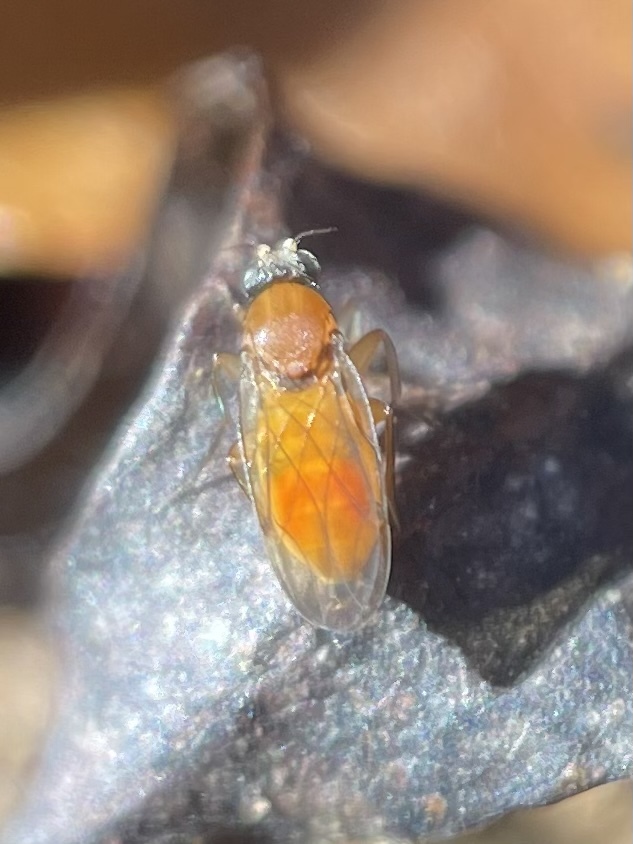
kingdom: Animalia
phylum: Arthropoda
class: Insecta
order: Diptera
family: Phoridae
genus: Megaselia
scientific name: Megaselia aurea
